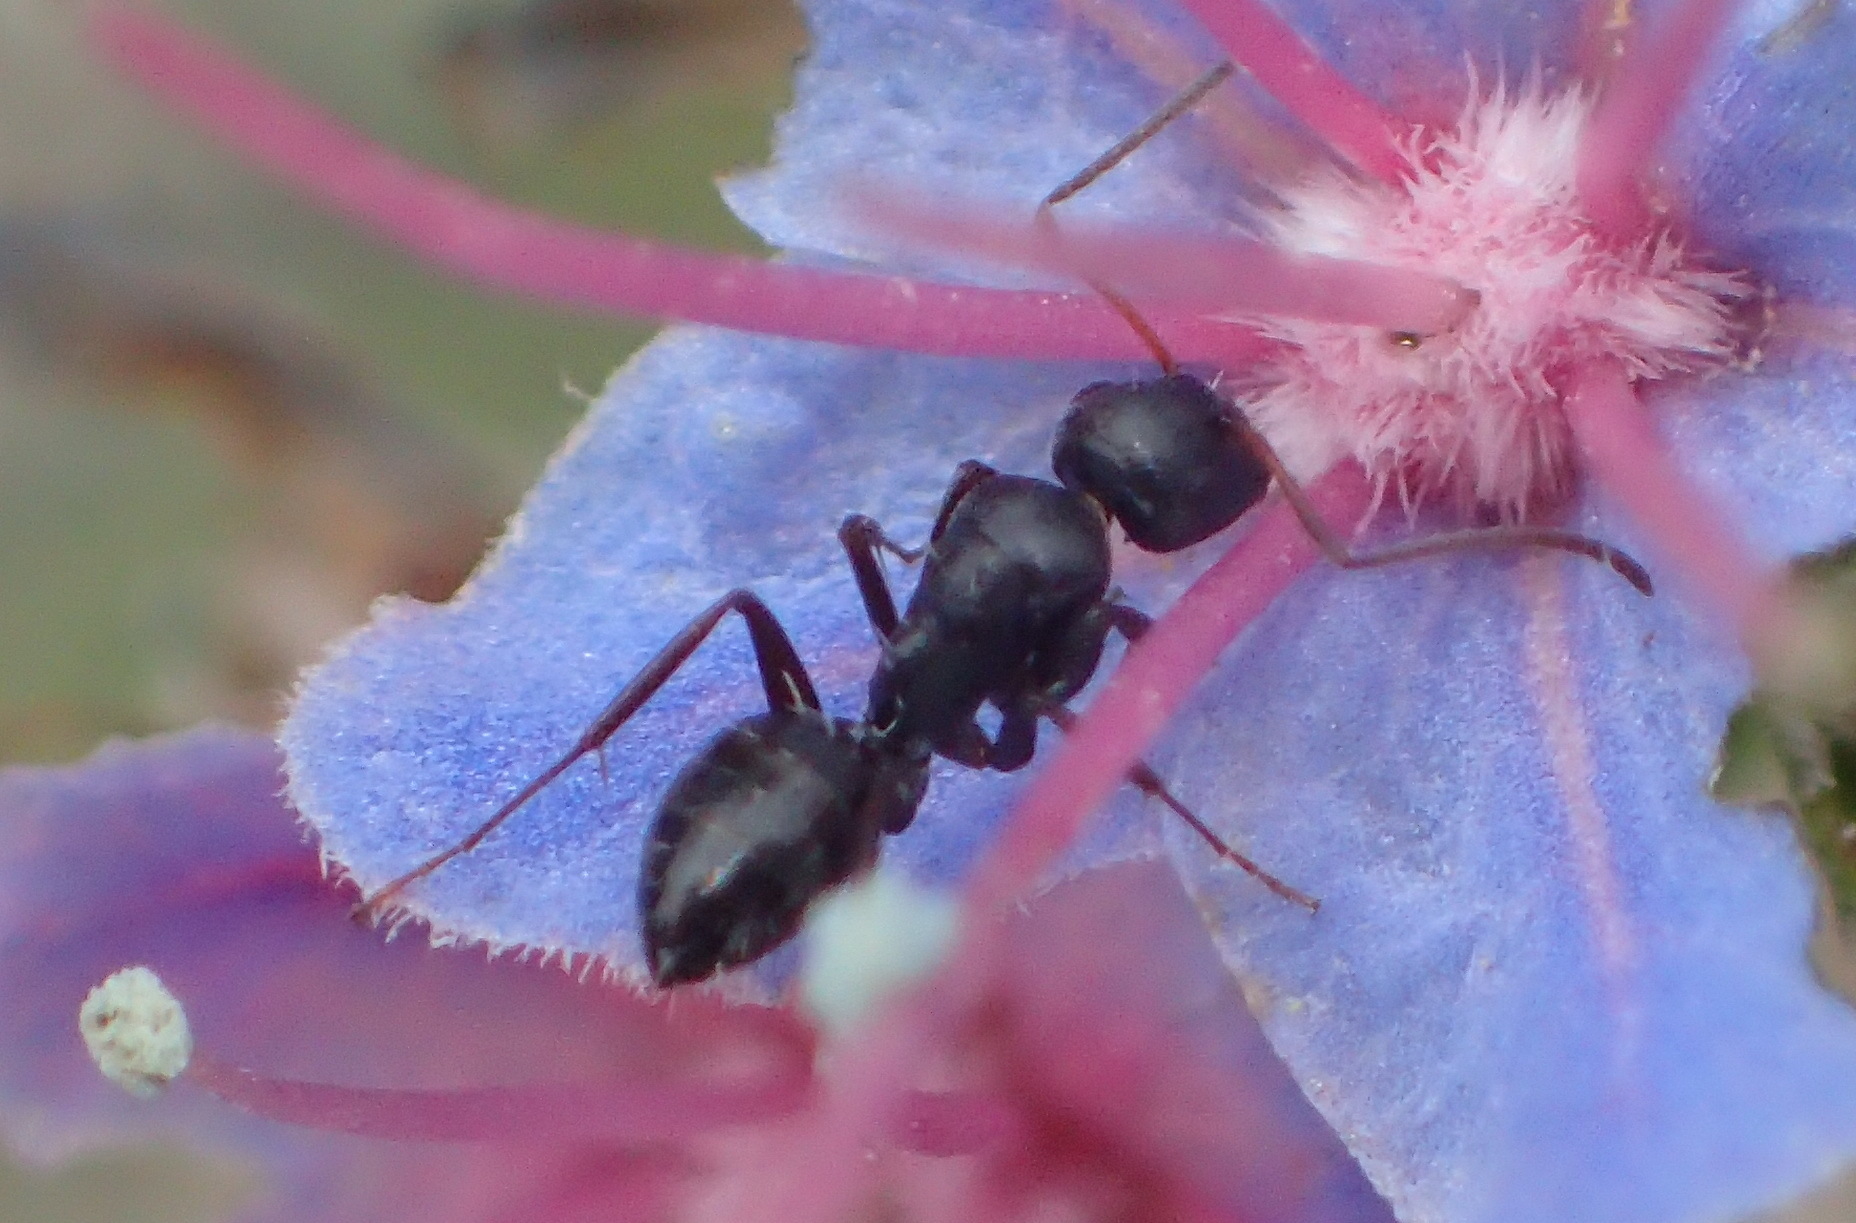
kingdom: Animalia
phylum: Arthropoda
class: Insecta
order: Hymenoptera
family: Formicidae
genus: Camponotus
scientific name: Camponotus werthi
